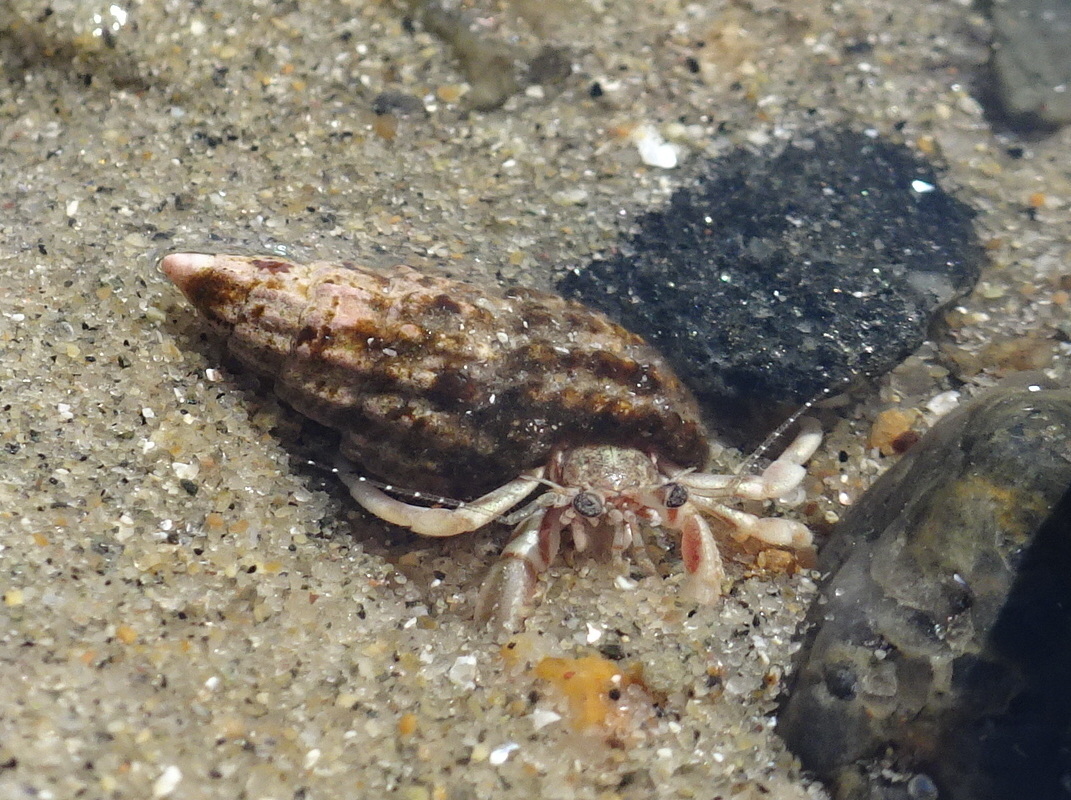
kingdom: Animalia
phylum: Arthropoda
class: Malacostraca
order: Decapoda
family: Paguridae
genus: Pagurus
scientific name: Pagurus longicarpus
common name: Long-armed hermit crab
